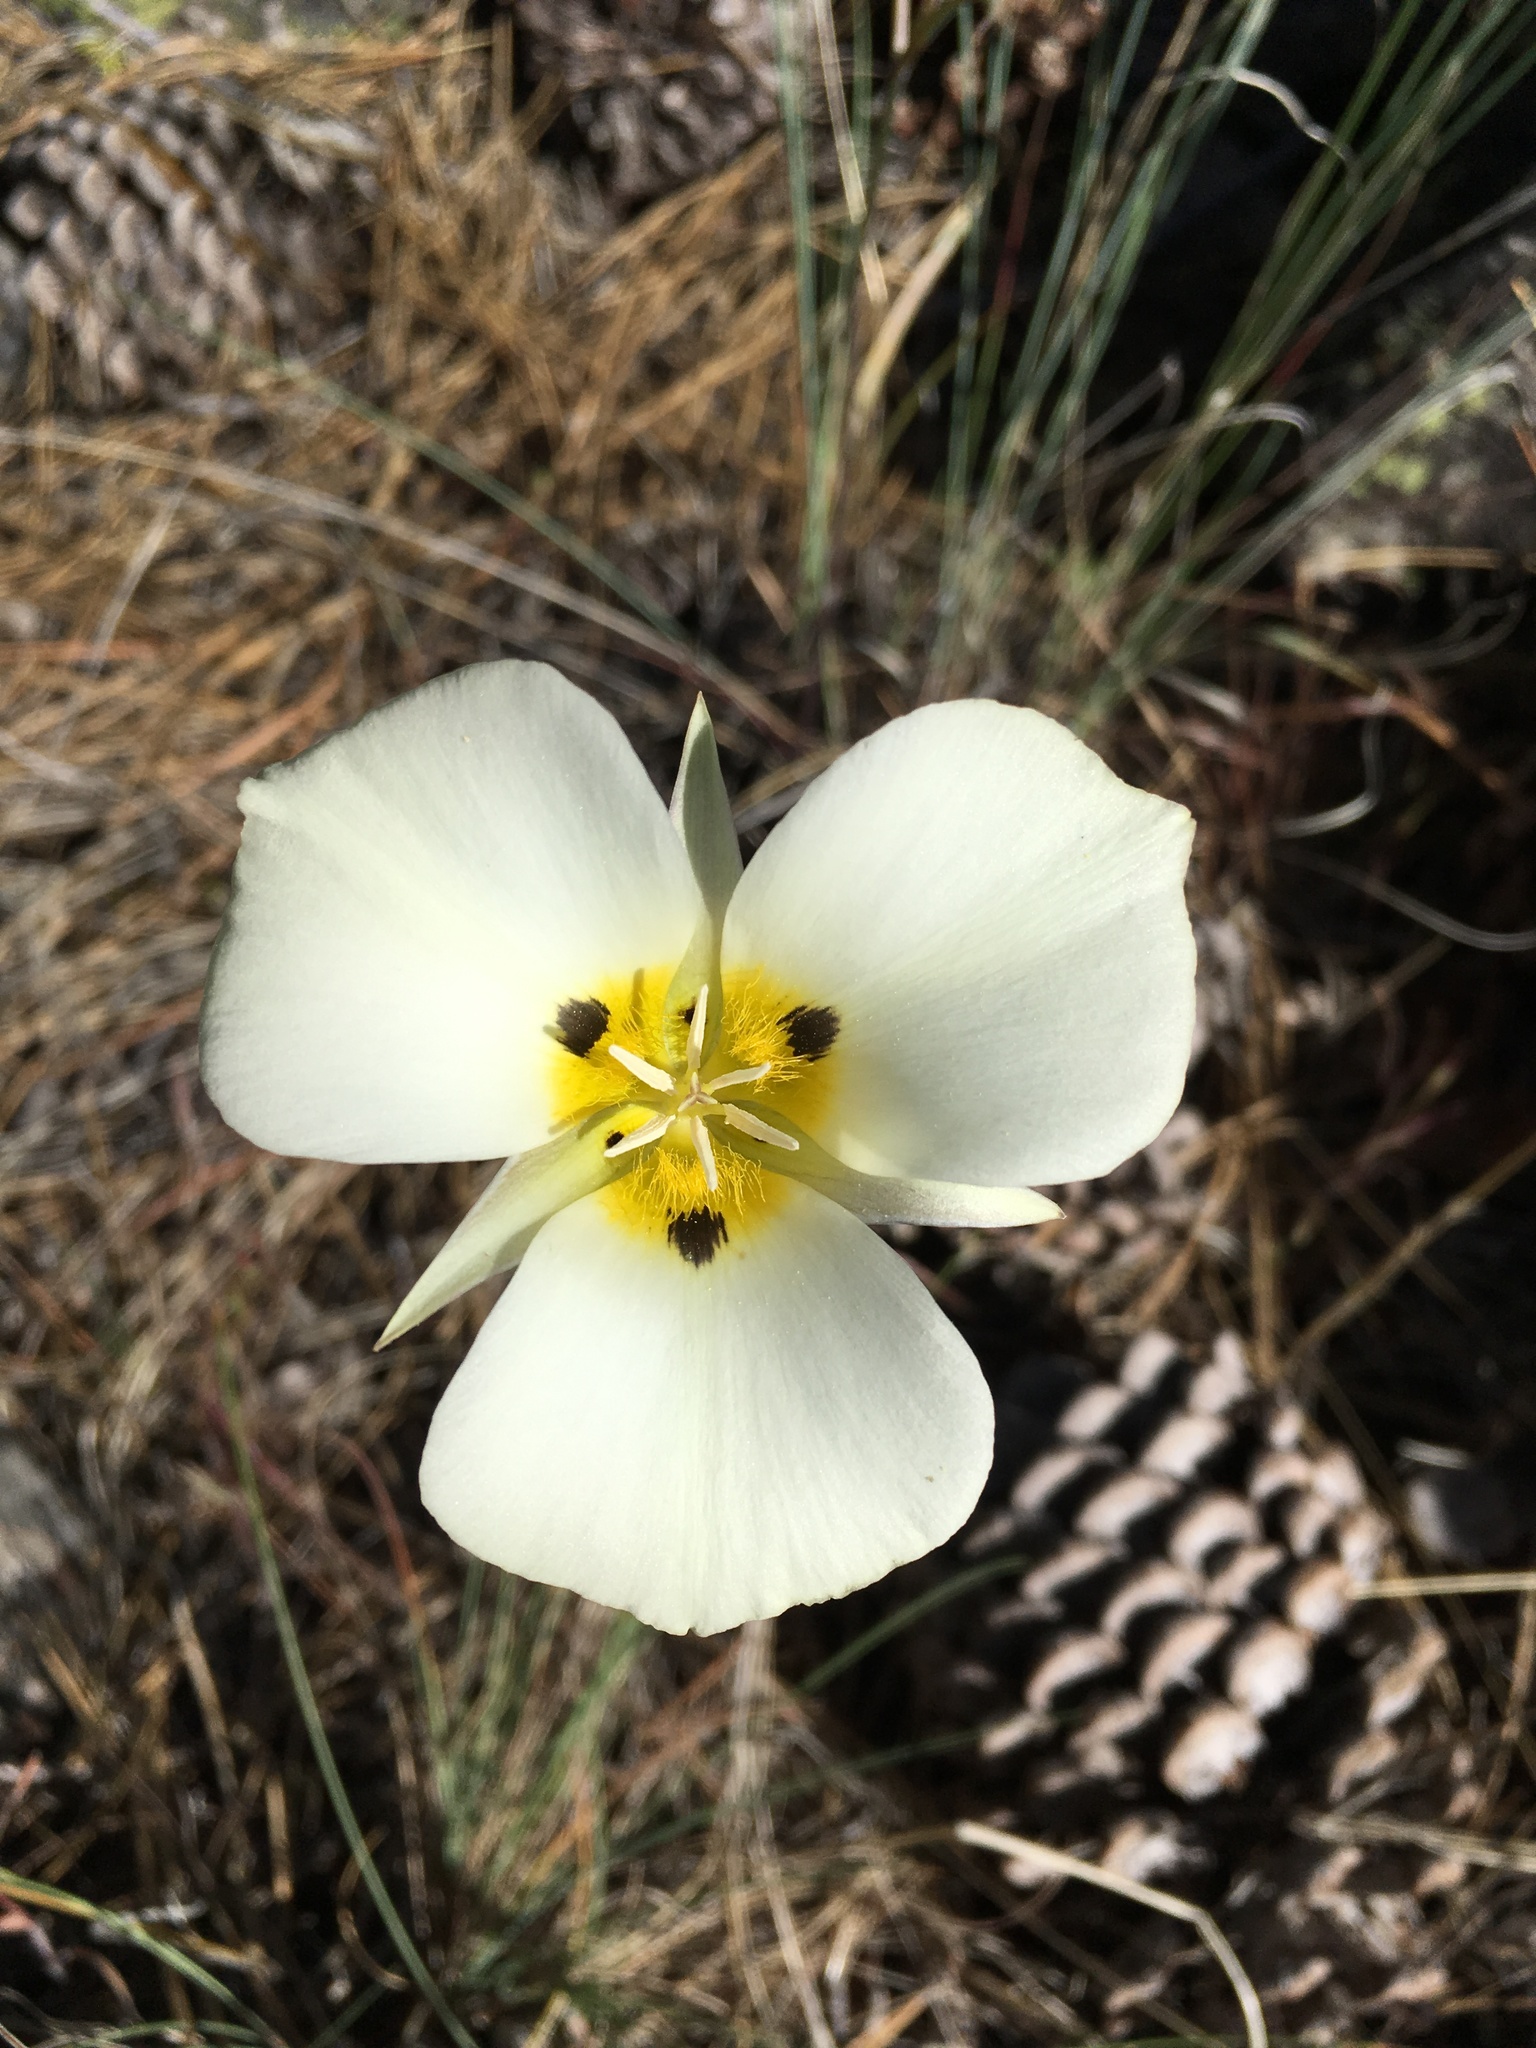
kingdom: Plantae
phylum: Tracheophyta
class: Liliopsida
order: Liliales
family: Liliaceae
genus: Calochortus
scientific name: Calochortus leichtlinii
